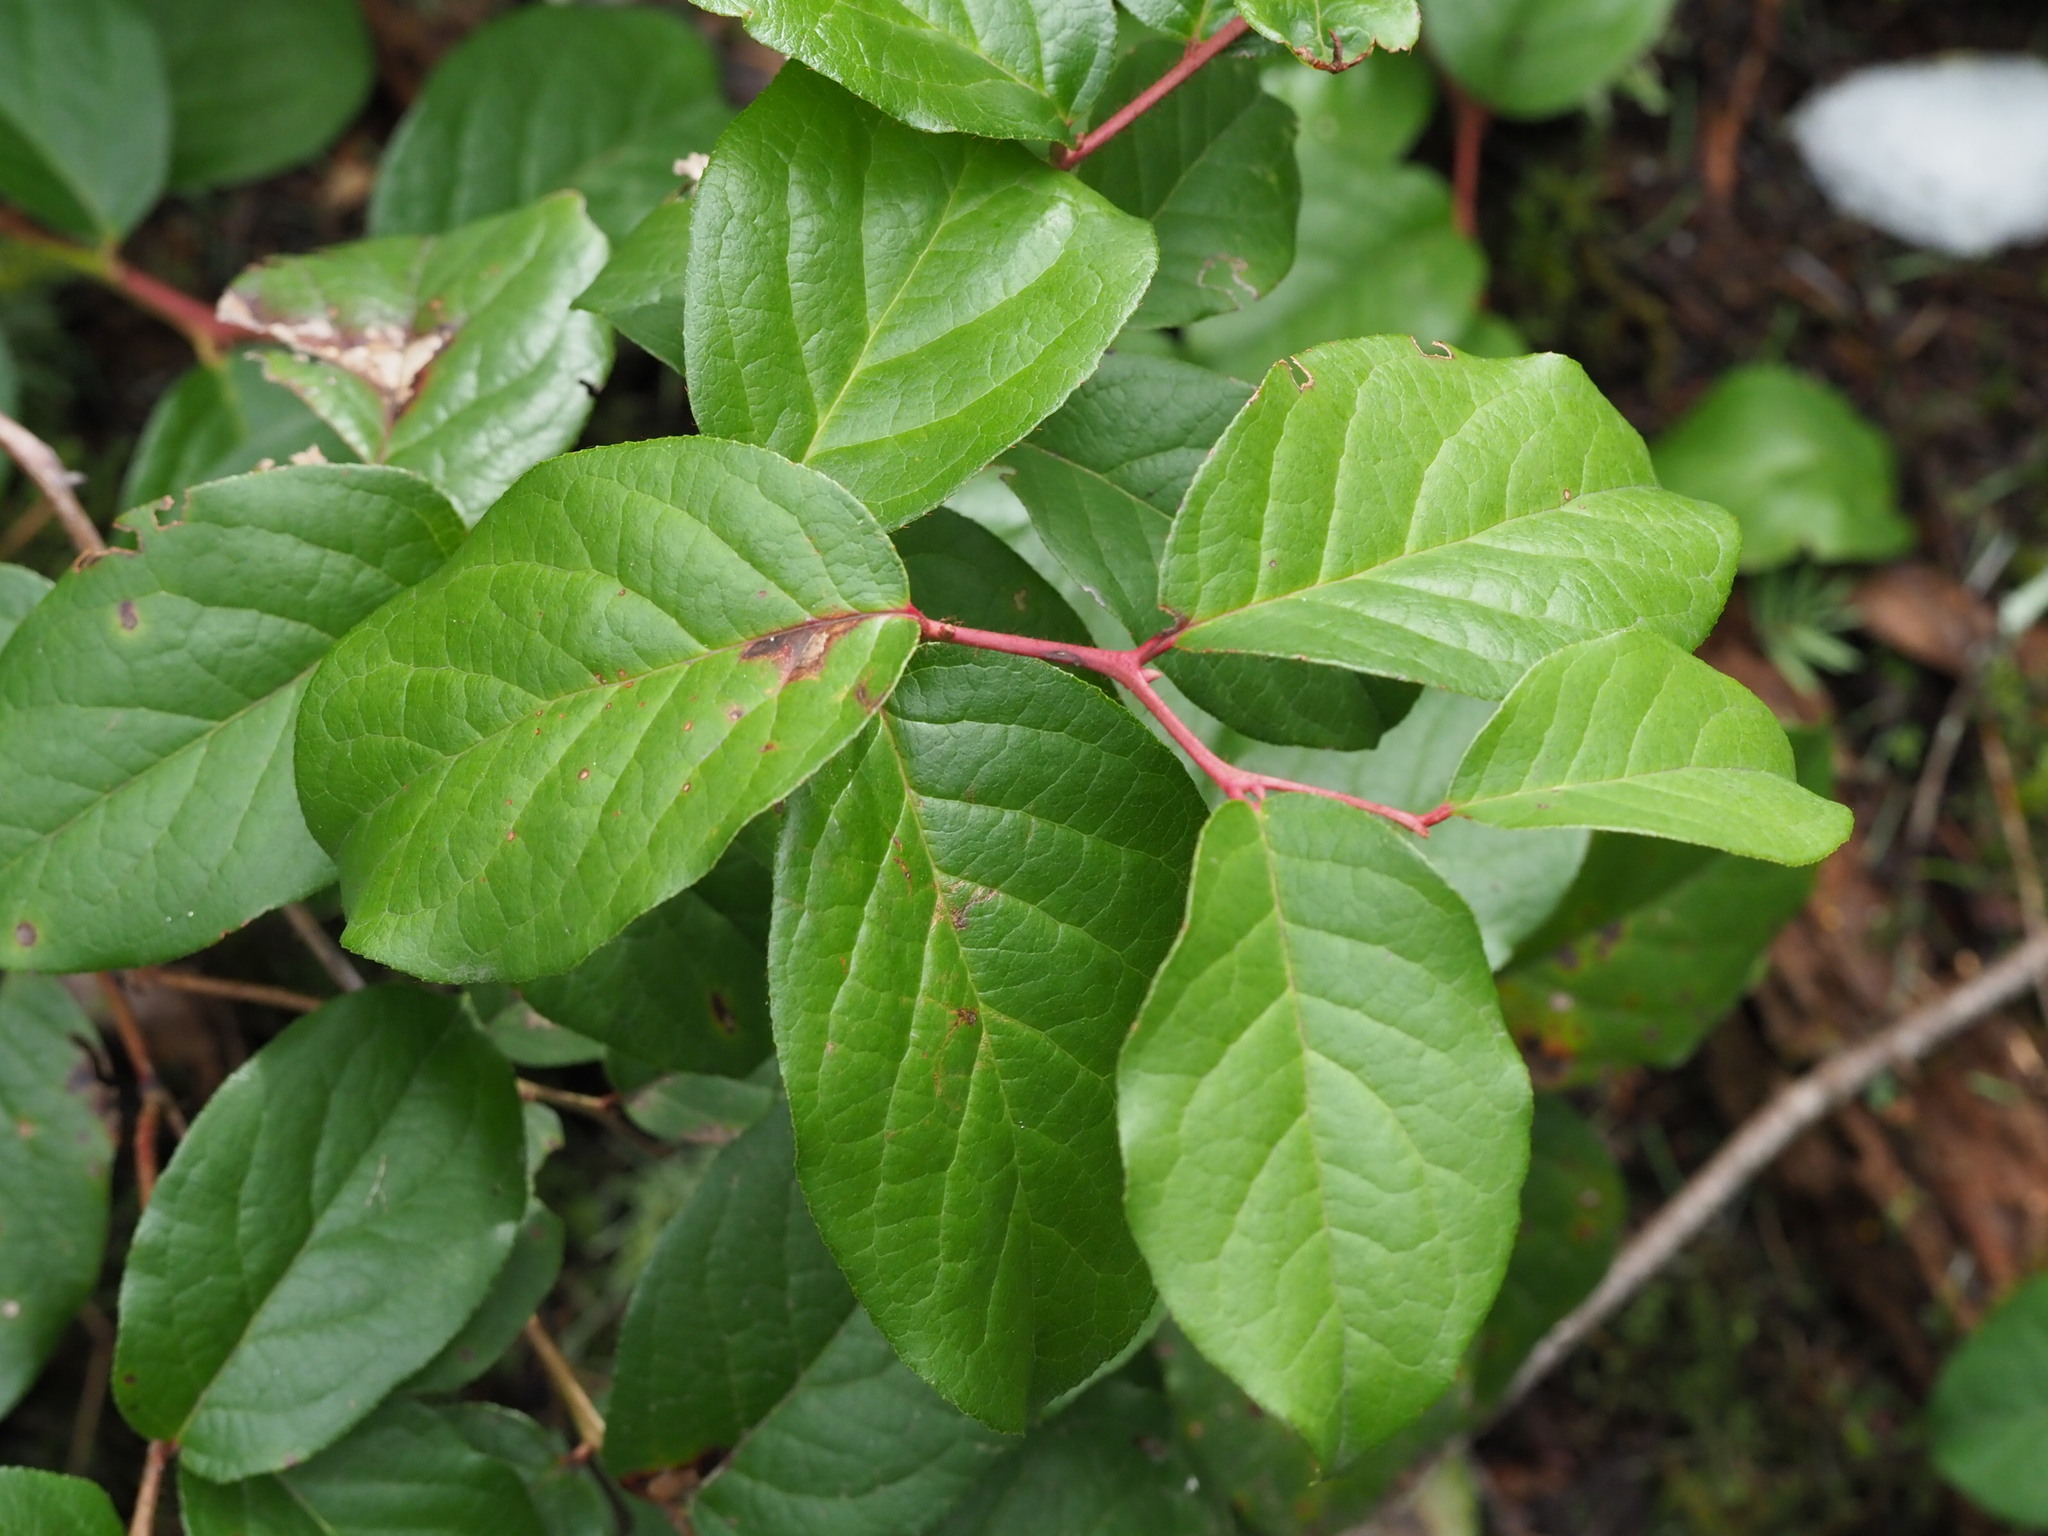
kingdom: Plantae
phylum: Tracheophyta
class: Magnoliopsida
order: Ericales
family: Ericaceae
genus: Gaultheria
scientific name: Gaultheria shallon
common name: Shallon
